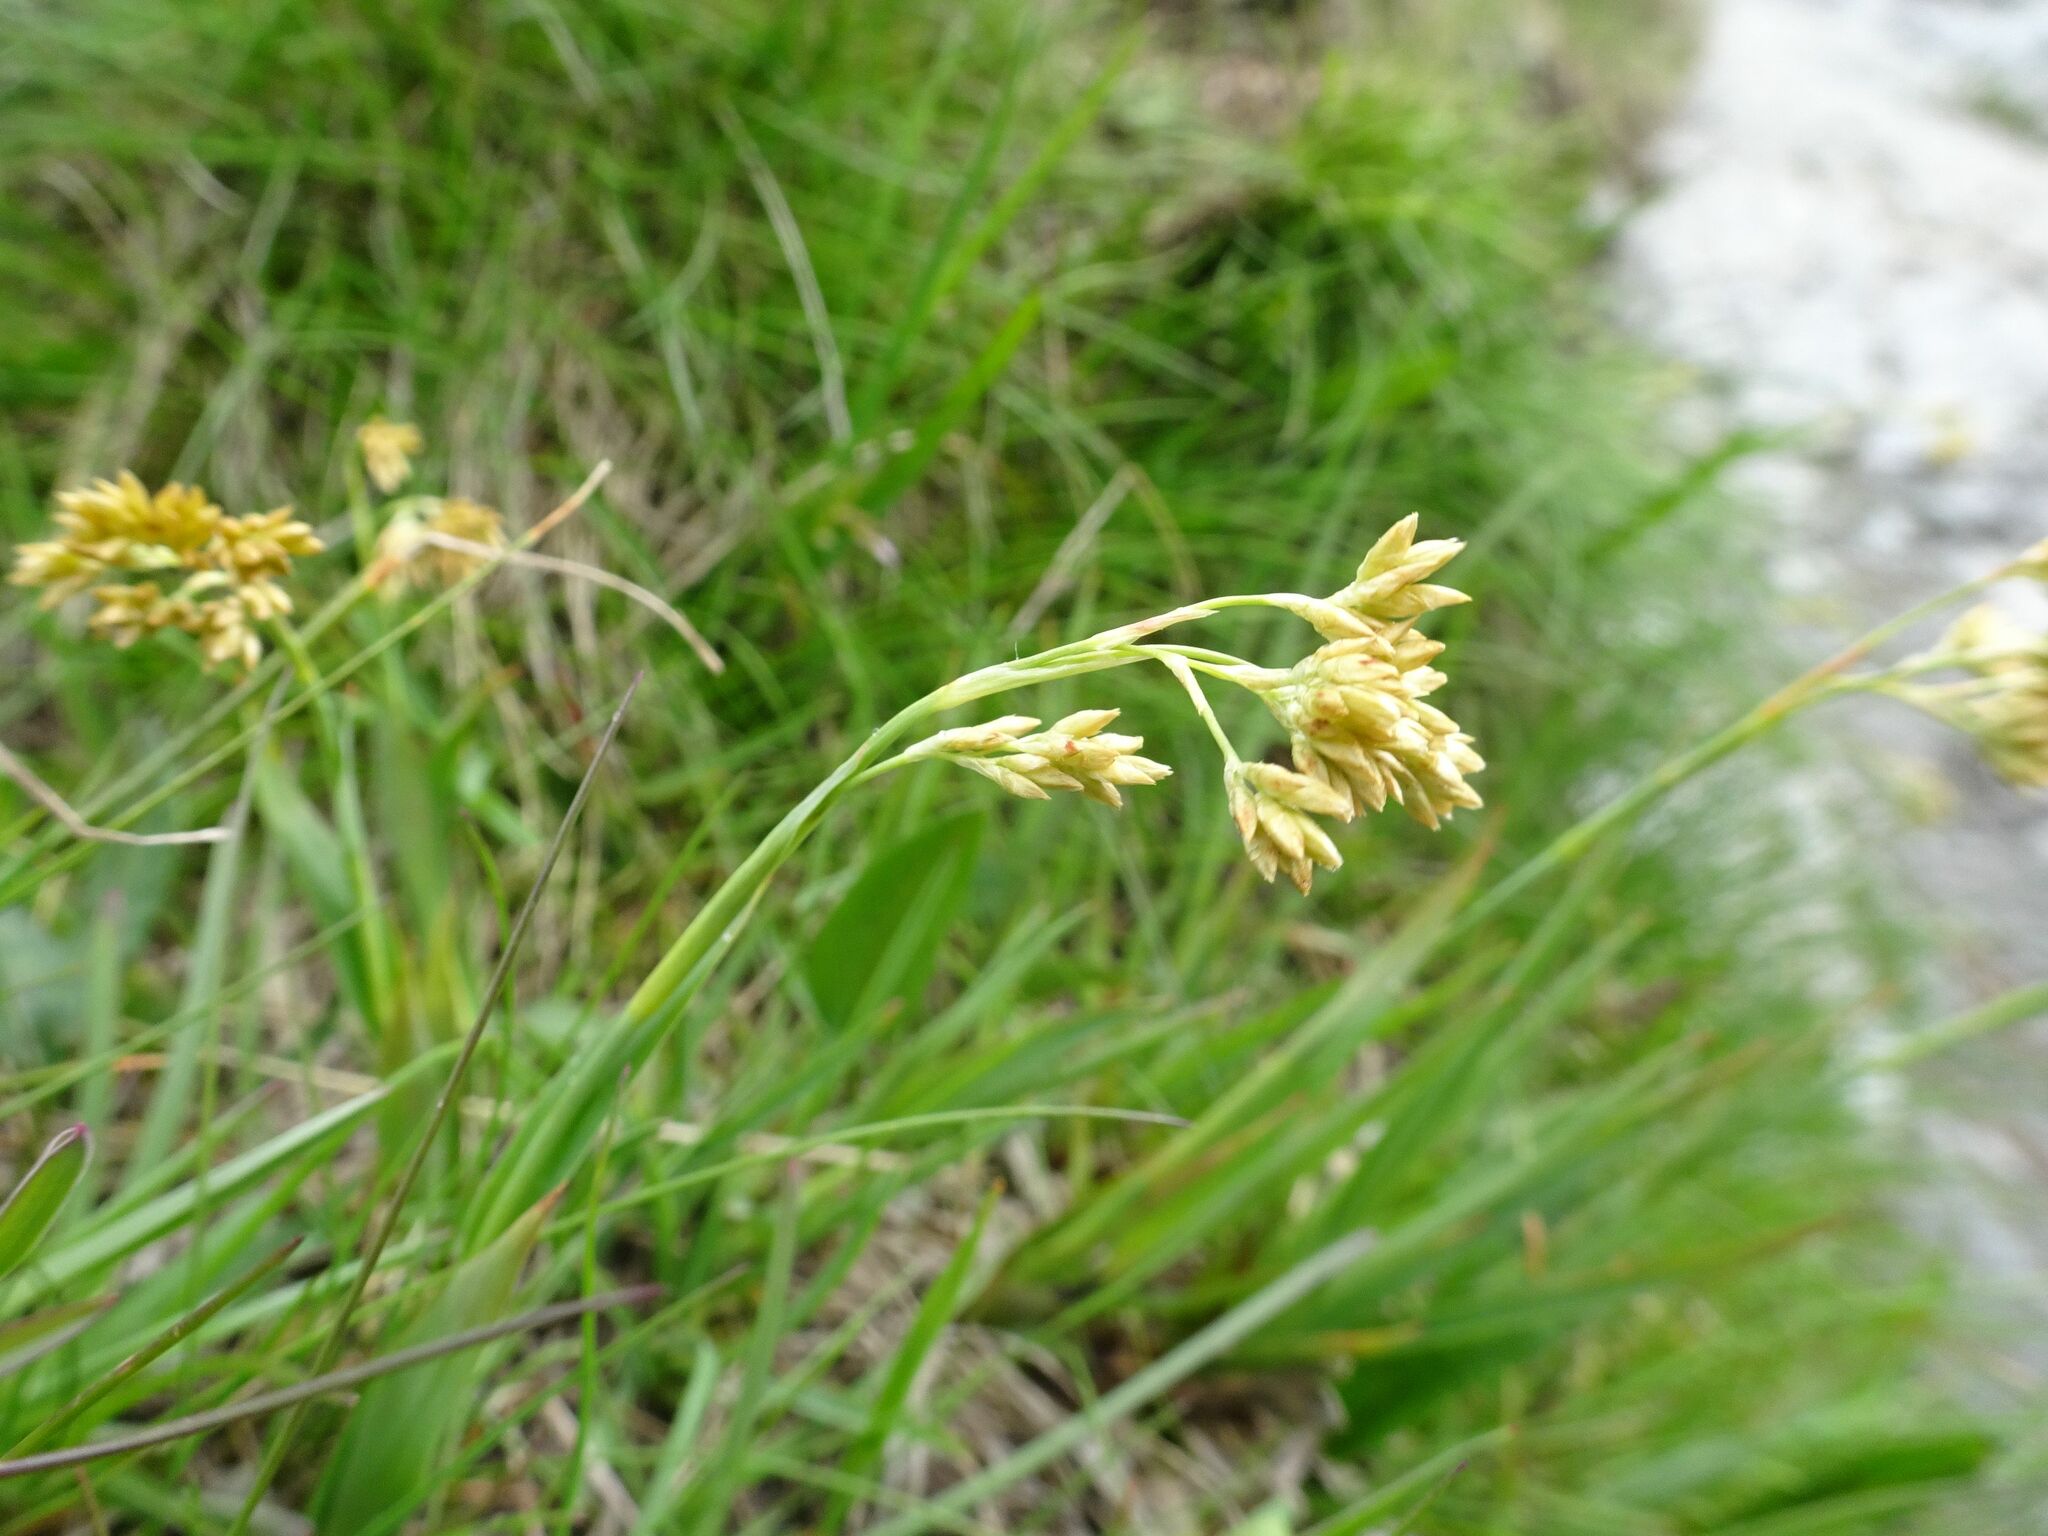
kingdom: Plantae
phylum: Tracheophyta
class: Liliopsida
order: Poales
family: Juncaceae
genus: Luzula
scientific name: Luzula lutea
